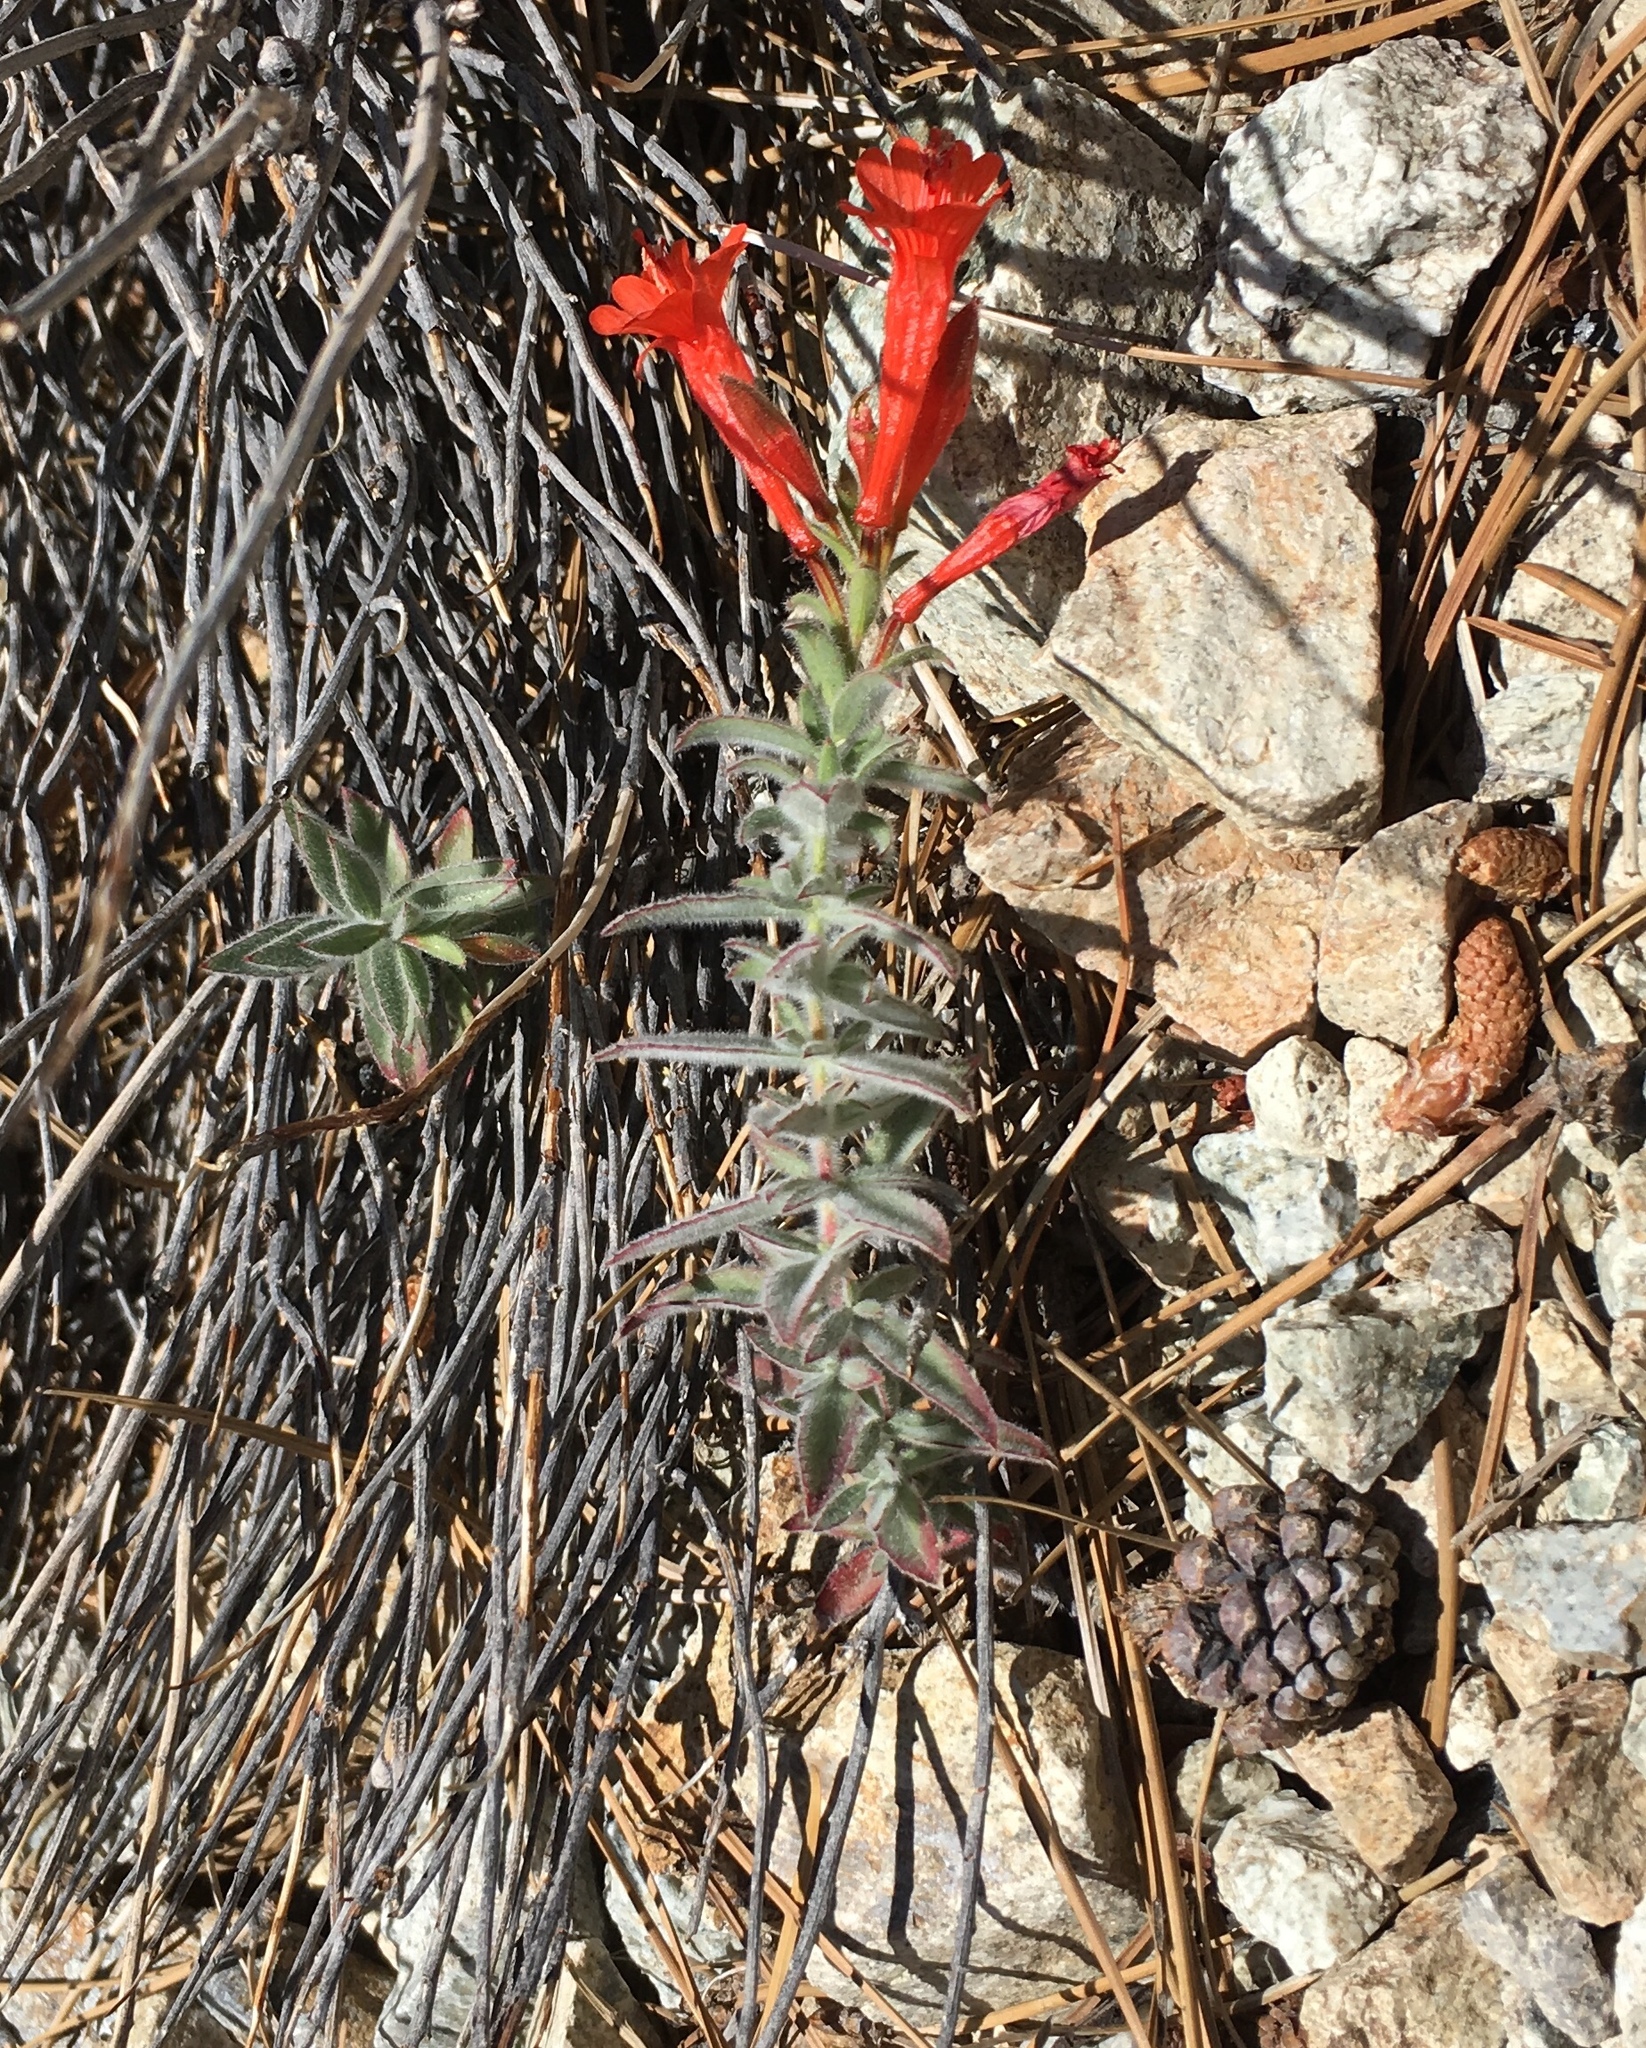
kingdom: Plantae
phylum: Tracheophyta
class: Magnoliopsida
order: Myrtales
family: Onagraceae
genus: Epilobium
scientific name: Epilobium canum
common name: California-fuchsia
